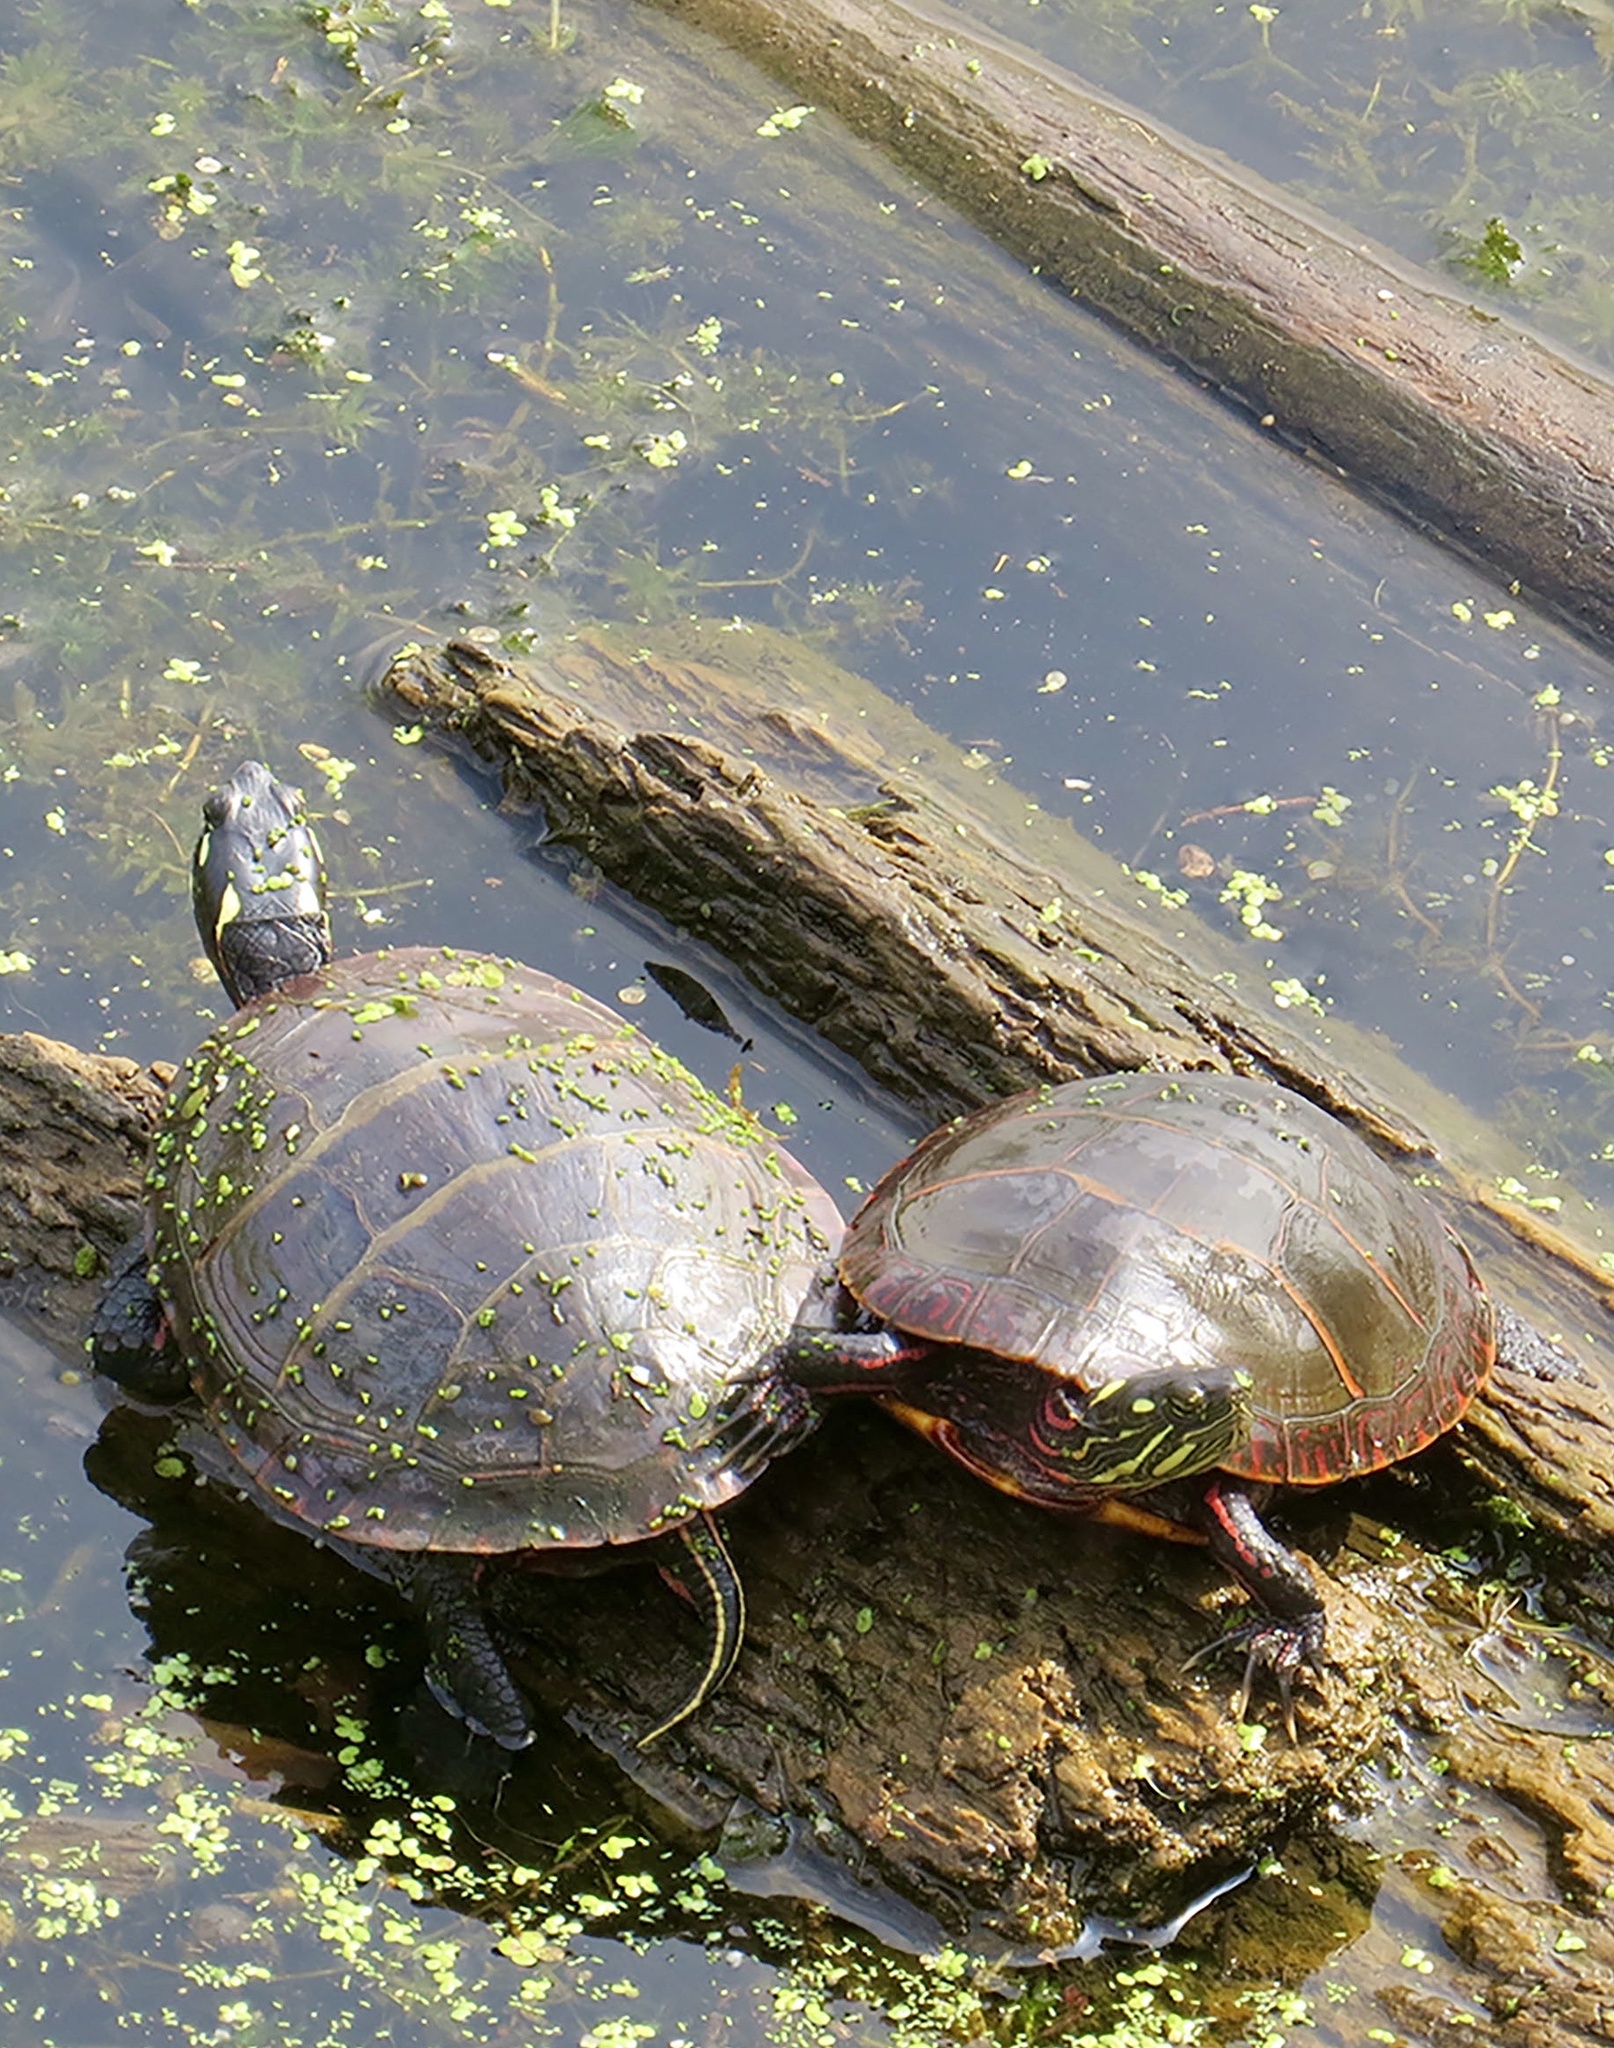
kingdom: Animalia
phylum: Chordata
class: Testudines
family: Emydidae
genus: Chrysemys
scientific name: Chrysemys picta
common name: Painted turtle
